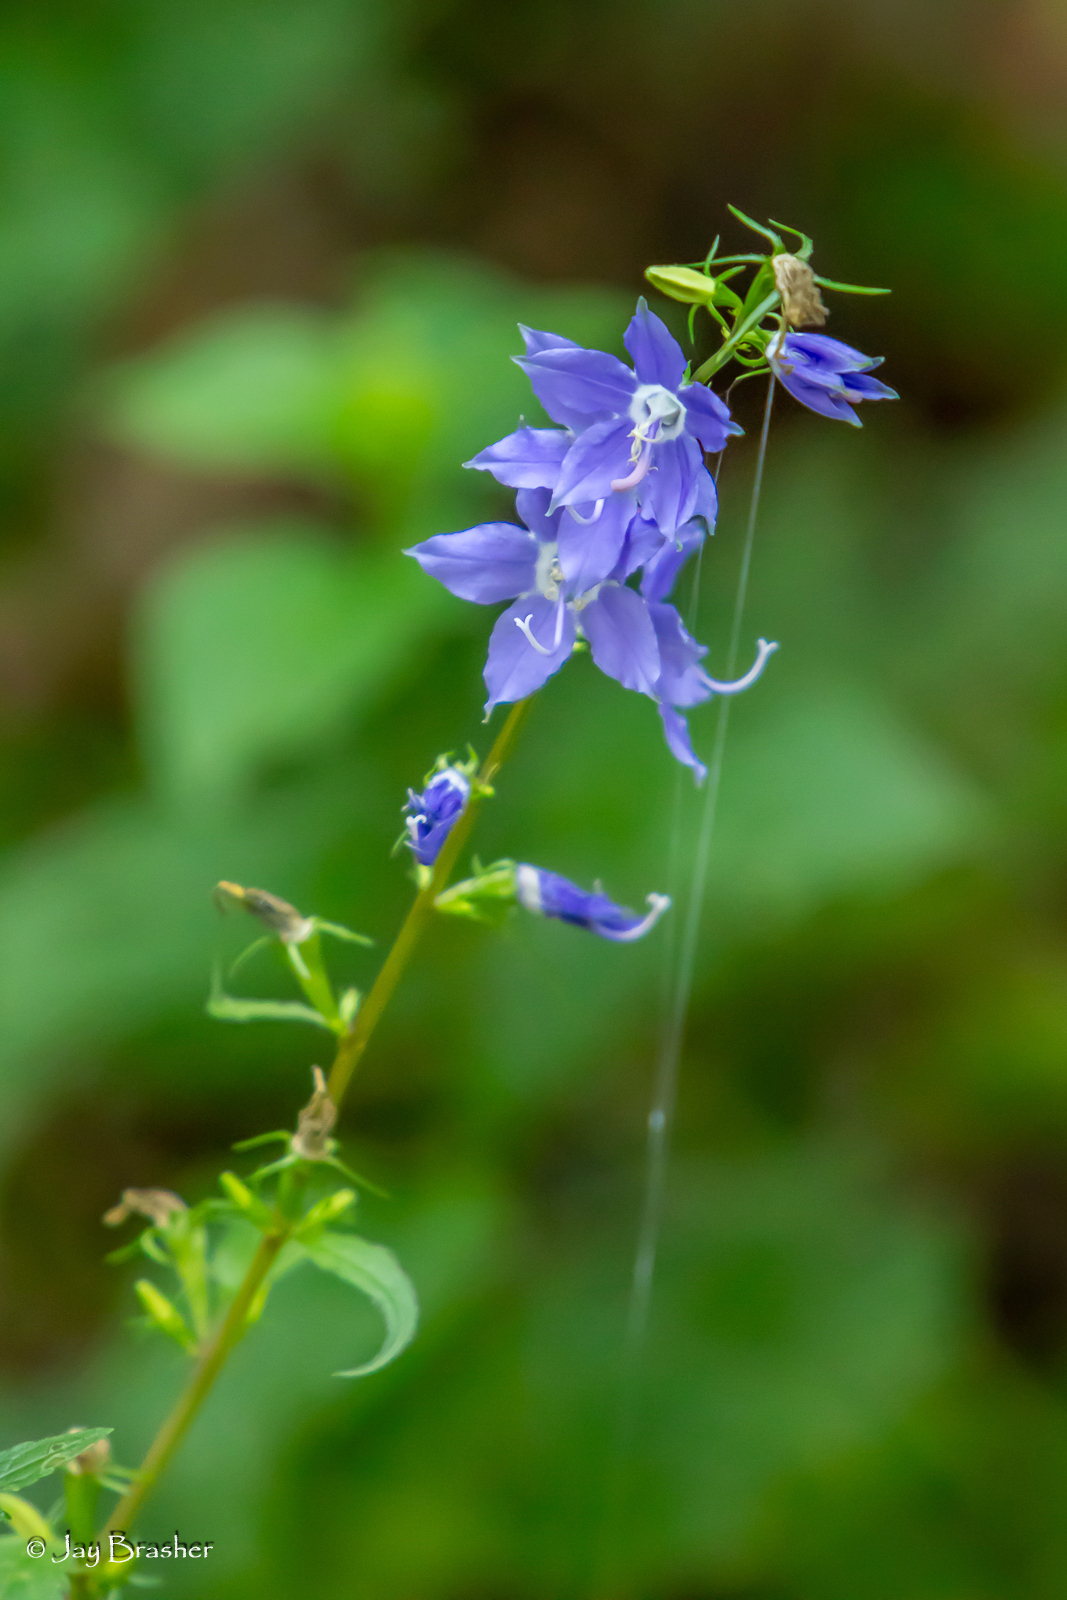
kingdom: Plantae
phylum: Tracheophyta
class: Magnoliopsida
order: Asterales
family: Campanulaceae
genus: Campanulastrum
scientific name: Campanulastrum americanum
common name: American bellflower
